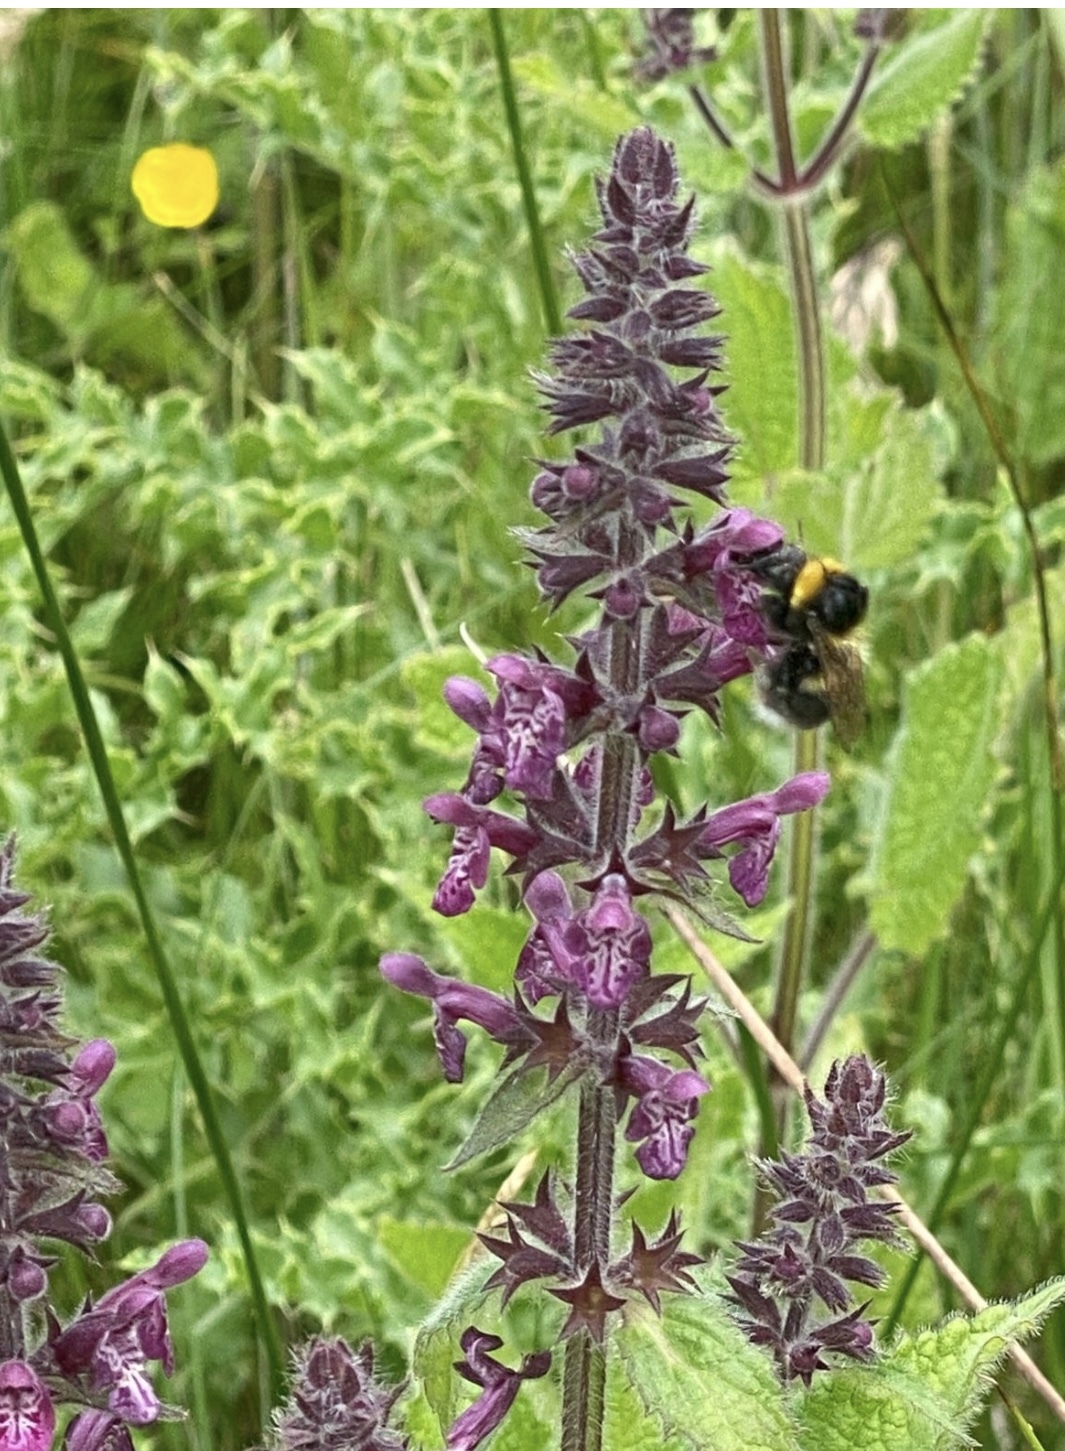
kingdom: Plantae
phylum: Tracheophyta
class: Magnoliopsida
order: Lamiales
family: Lamiaceae
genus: Stachys
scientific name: Stachys sylvatica
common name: Hedge woundwort
